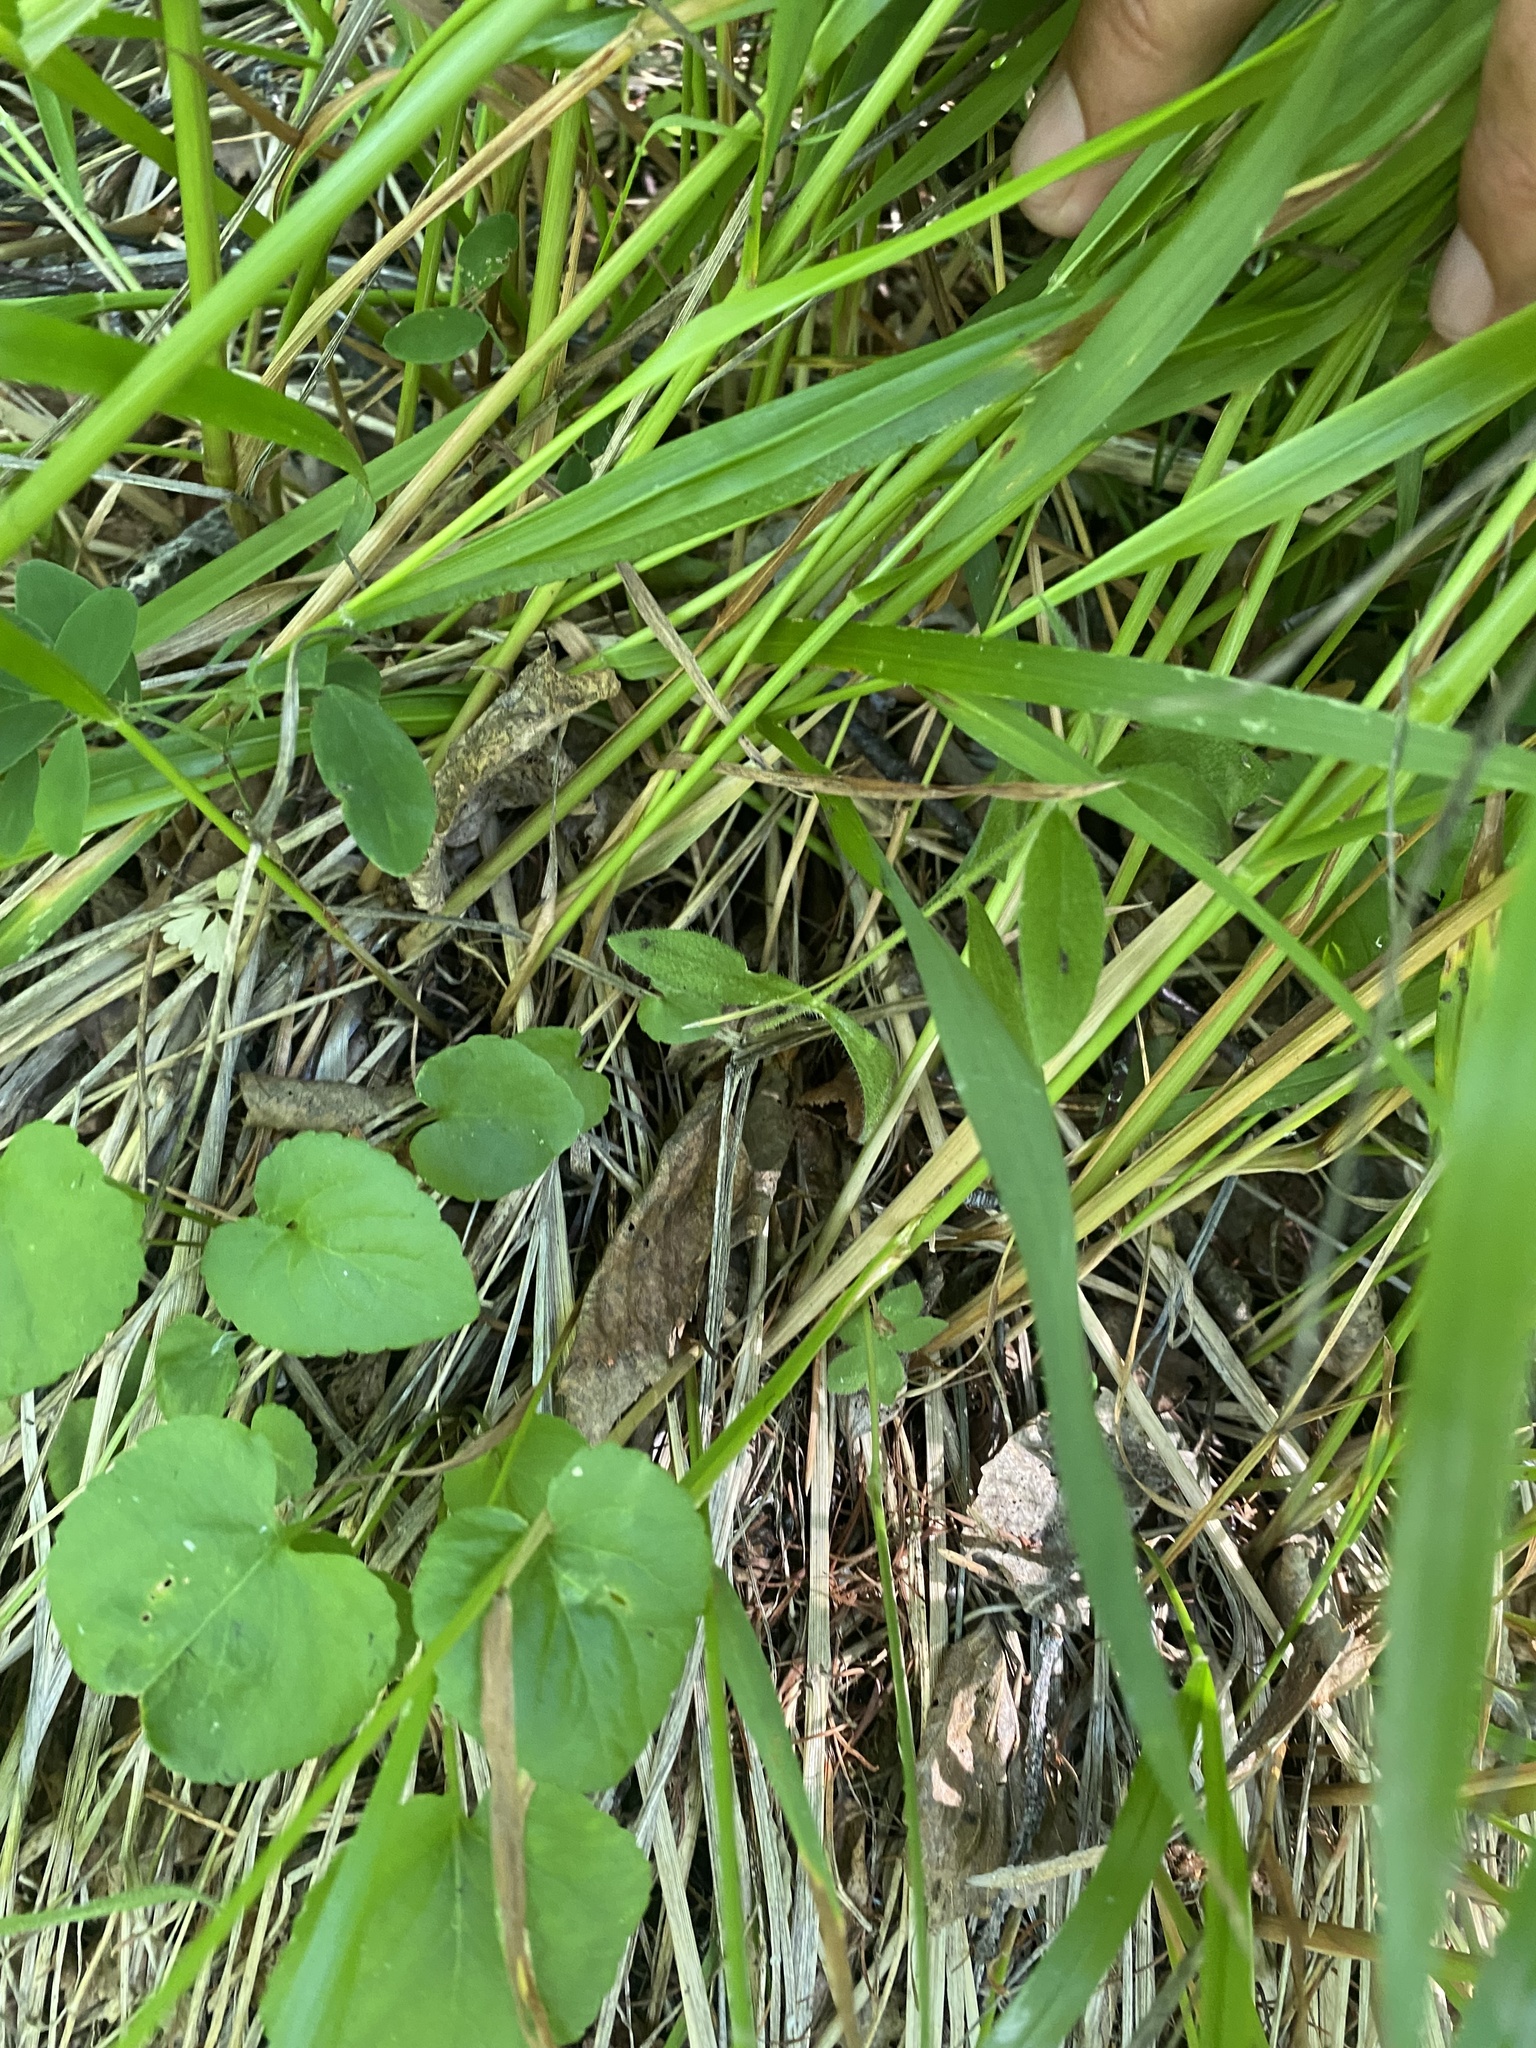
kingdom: Plantae
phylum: Tracheophyta
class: Liliopsida
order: Poales
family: Poaceae
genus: Calamagrostis
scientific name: Calamagrostis arundinacea
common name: Metskastik
